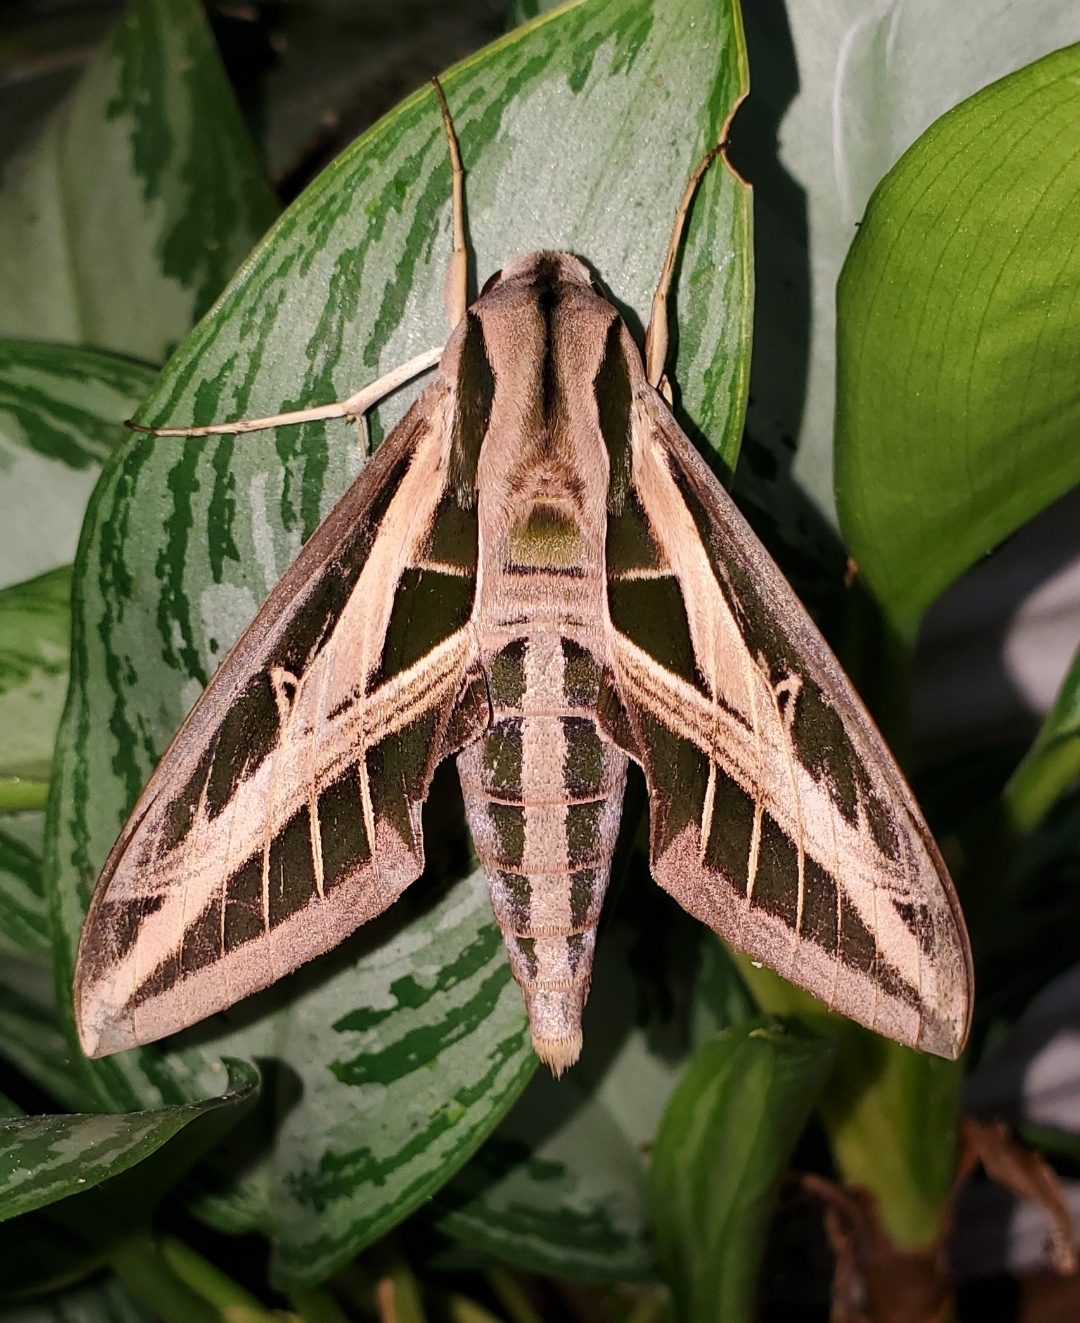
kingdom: Animalia
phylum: Arthropoda
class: Insecta
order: Lepidoptera
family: Sphingidae
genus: Eumorpha
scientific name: Eumorpha fasciatus
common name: Banded sphinx
